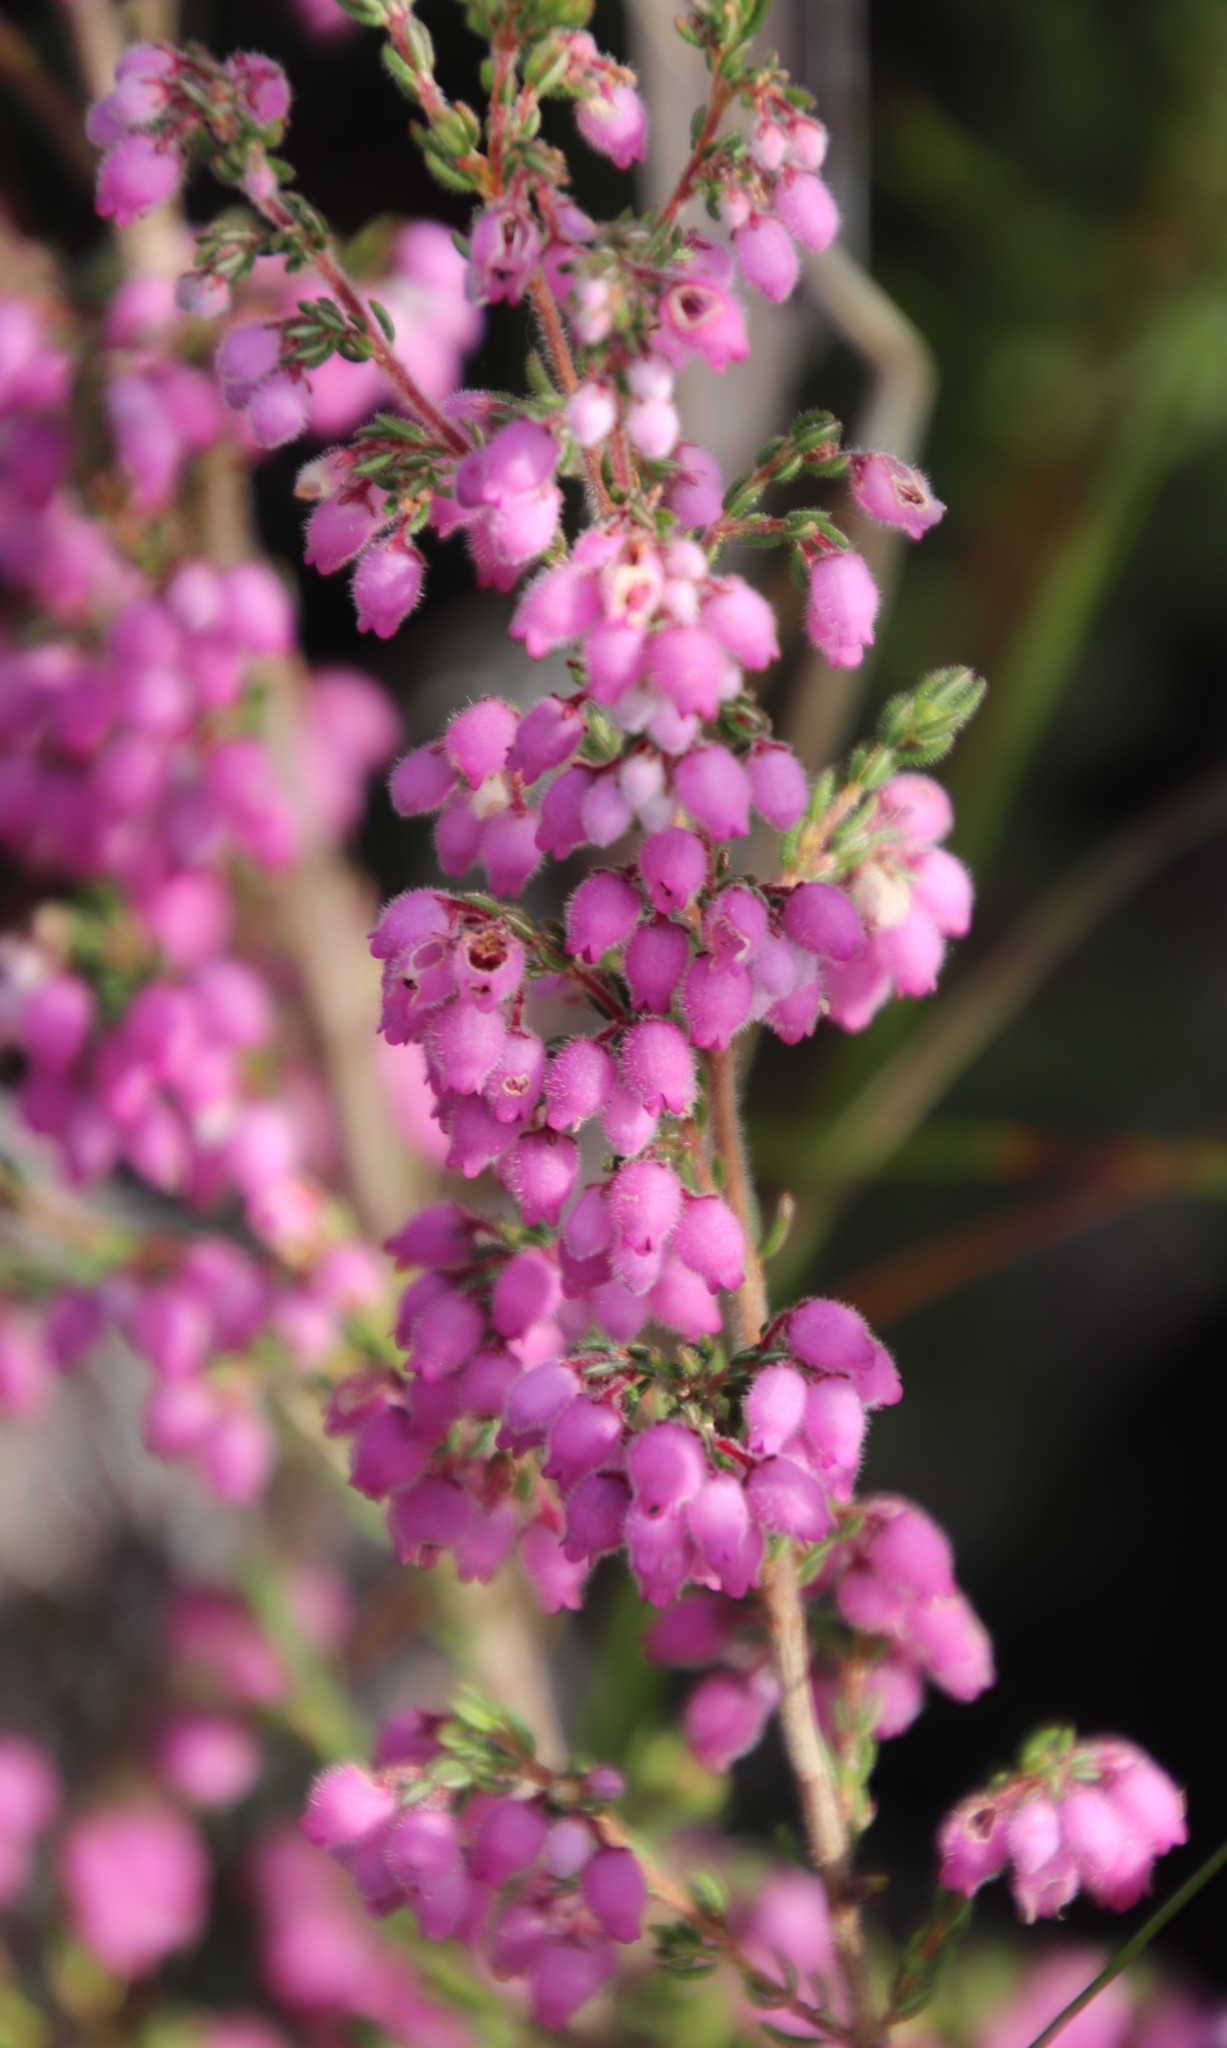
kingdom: Plantae
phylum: Tracheophyta
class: Magnoliopsida
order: Ericales
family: Ericaceae
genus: Erica
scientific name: Erica hirtiflora
